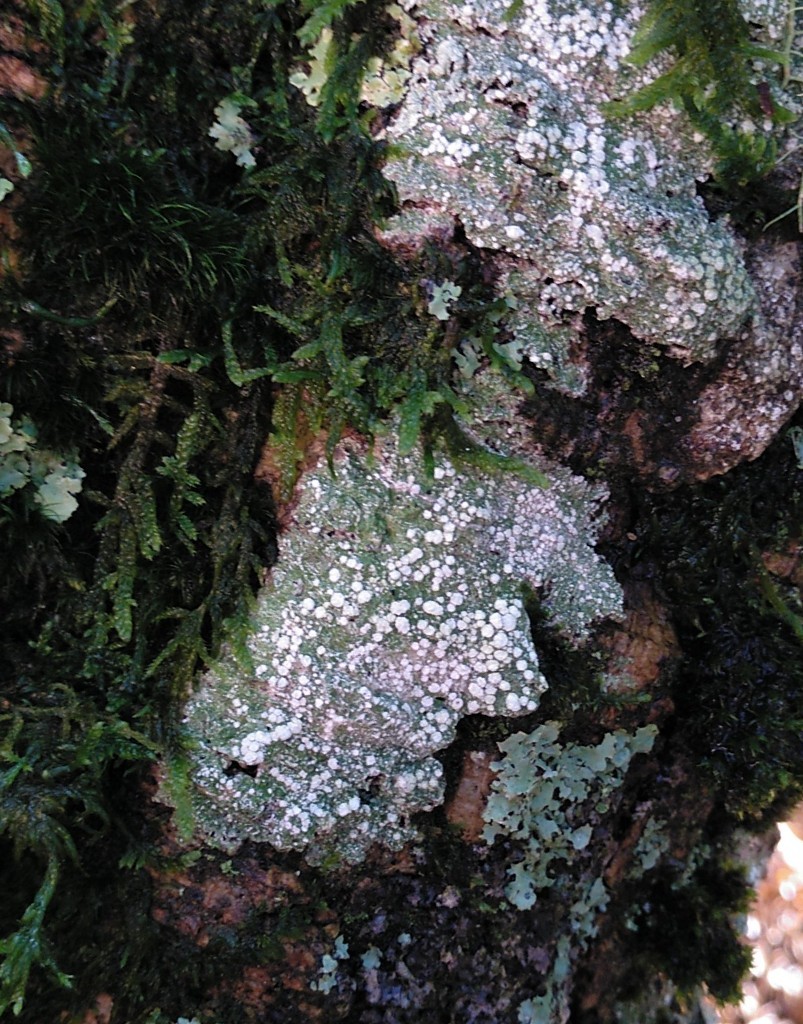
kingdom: Fungi
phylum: Ascomycota
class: Lecanoromycetes
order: Pertusariales
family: Pertusariaceae
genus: Lepra
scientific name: Lepra amara
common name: Bitter wart lichen
